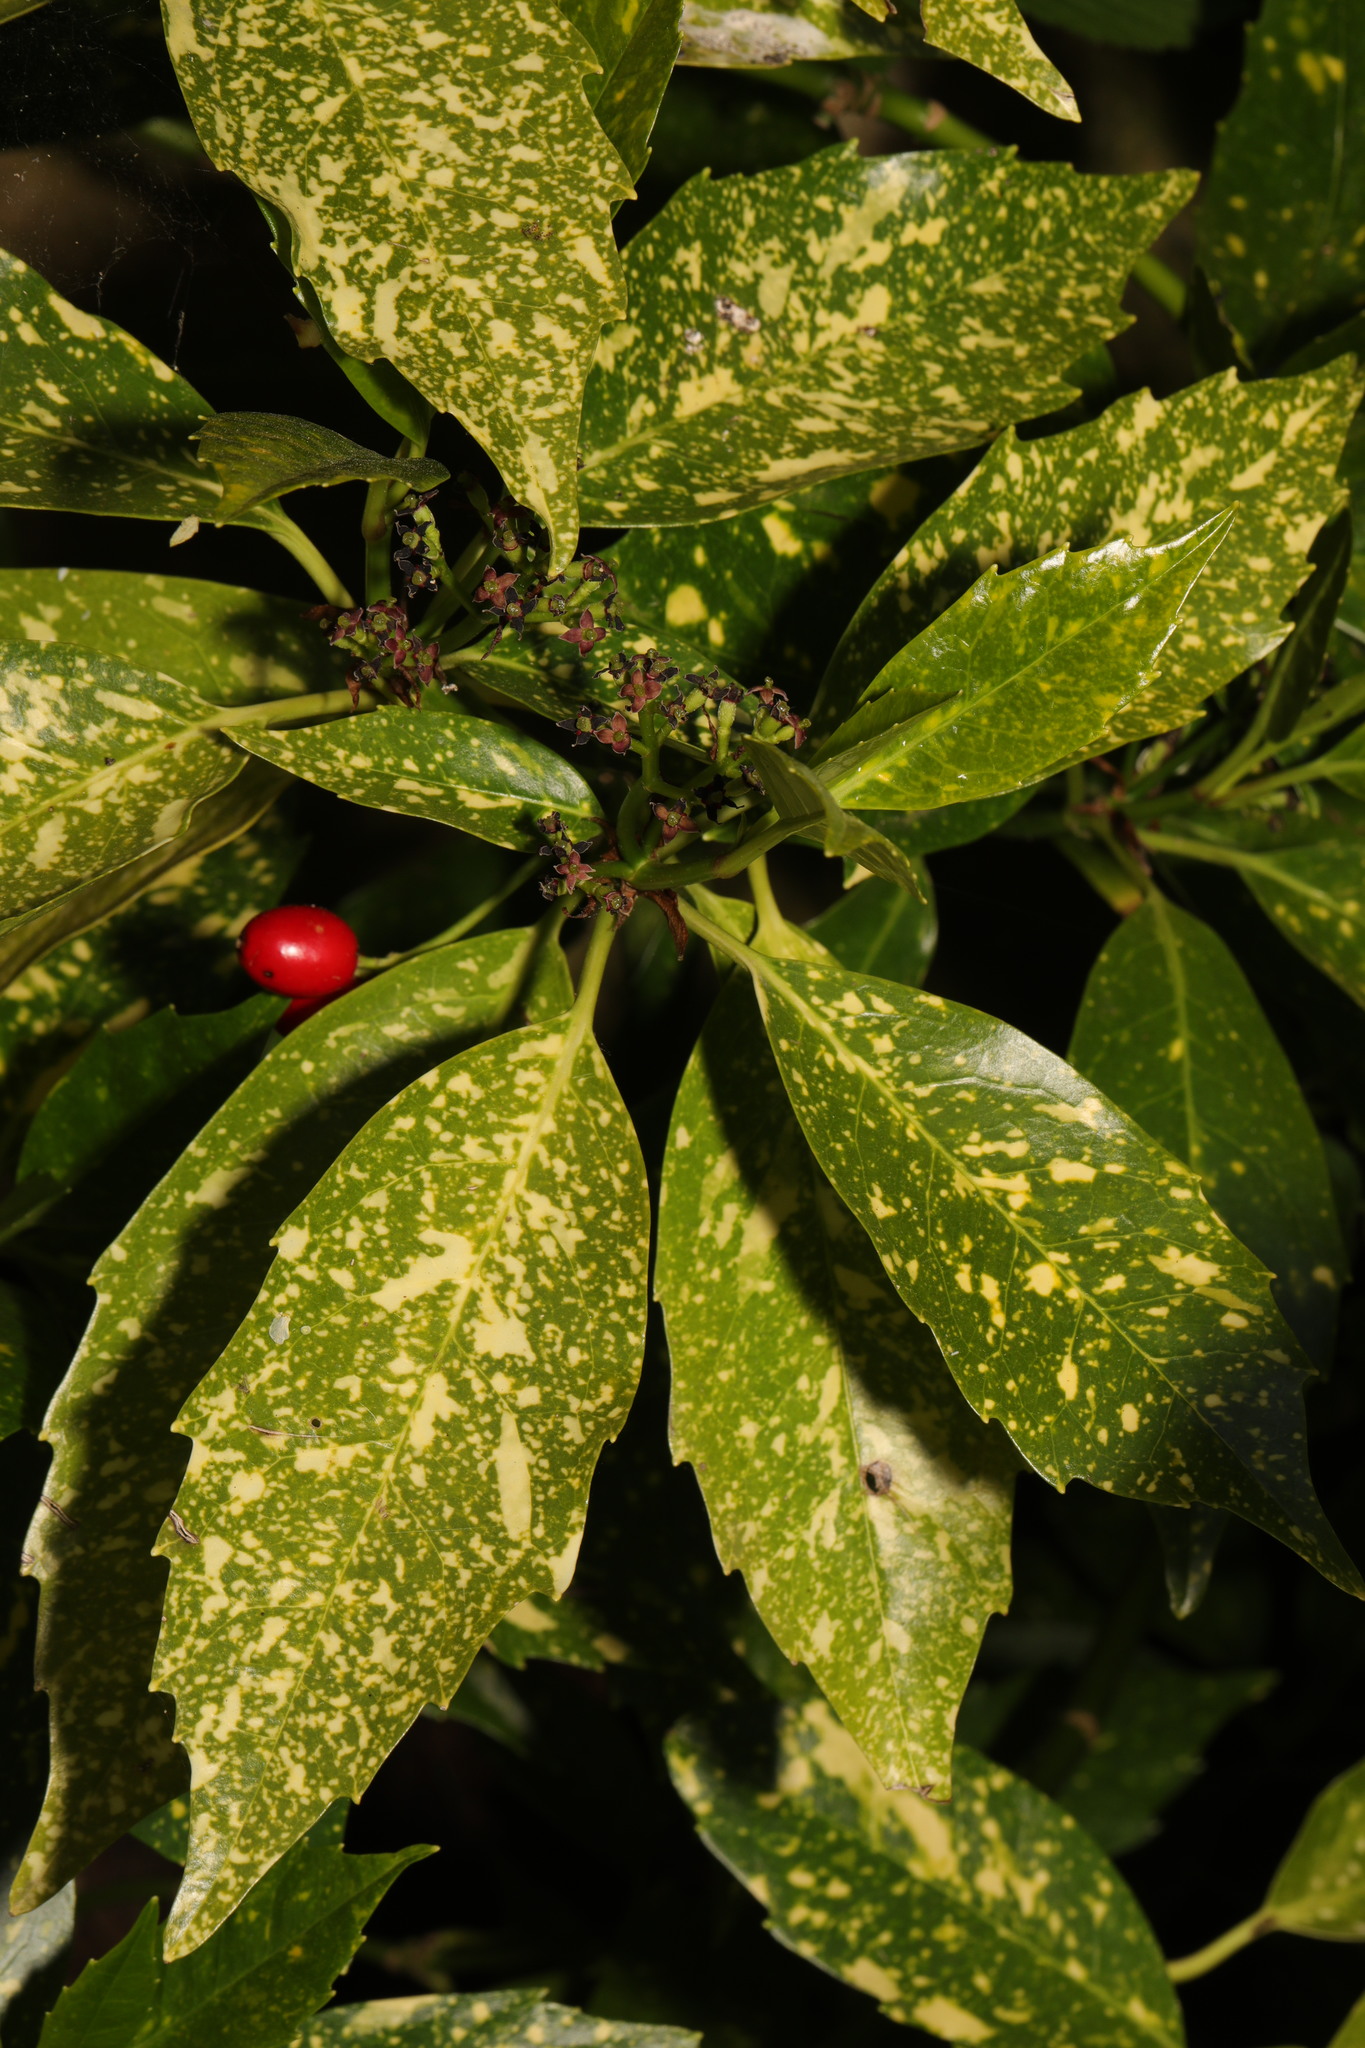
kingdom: Plantae
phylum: Tracheophyta
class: Magnoliopsida
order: Garryales
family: Garryaceae
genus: Aucuba
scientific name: Aucuba japonica
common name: Spotted-laurel
